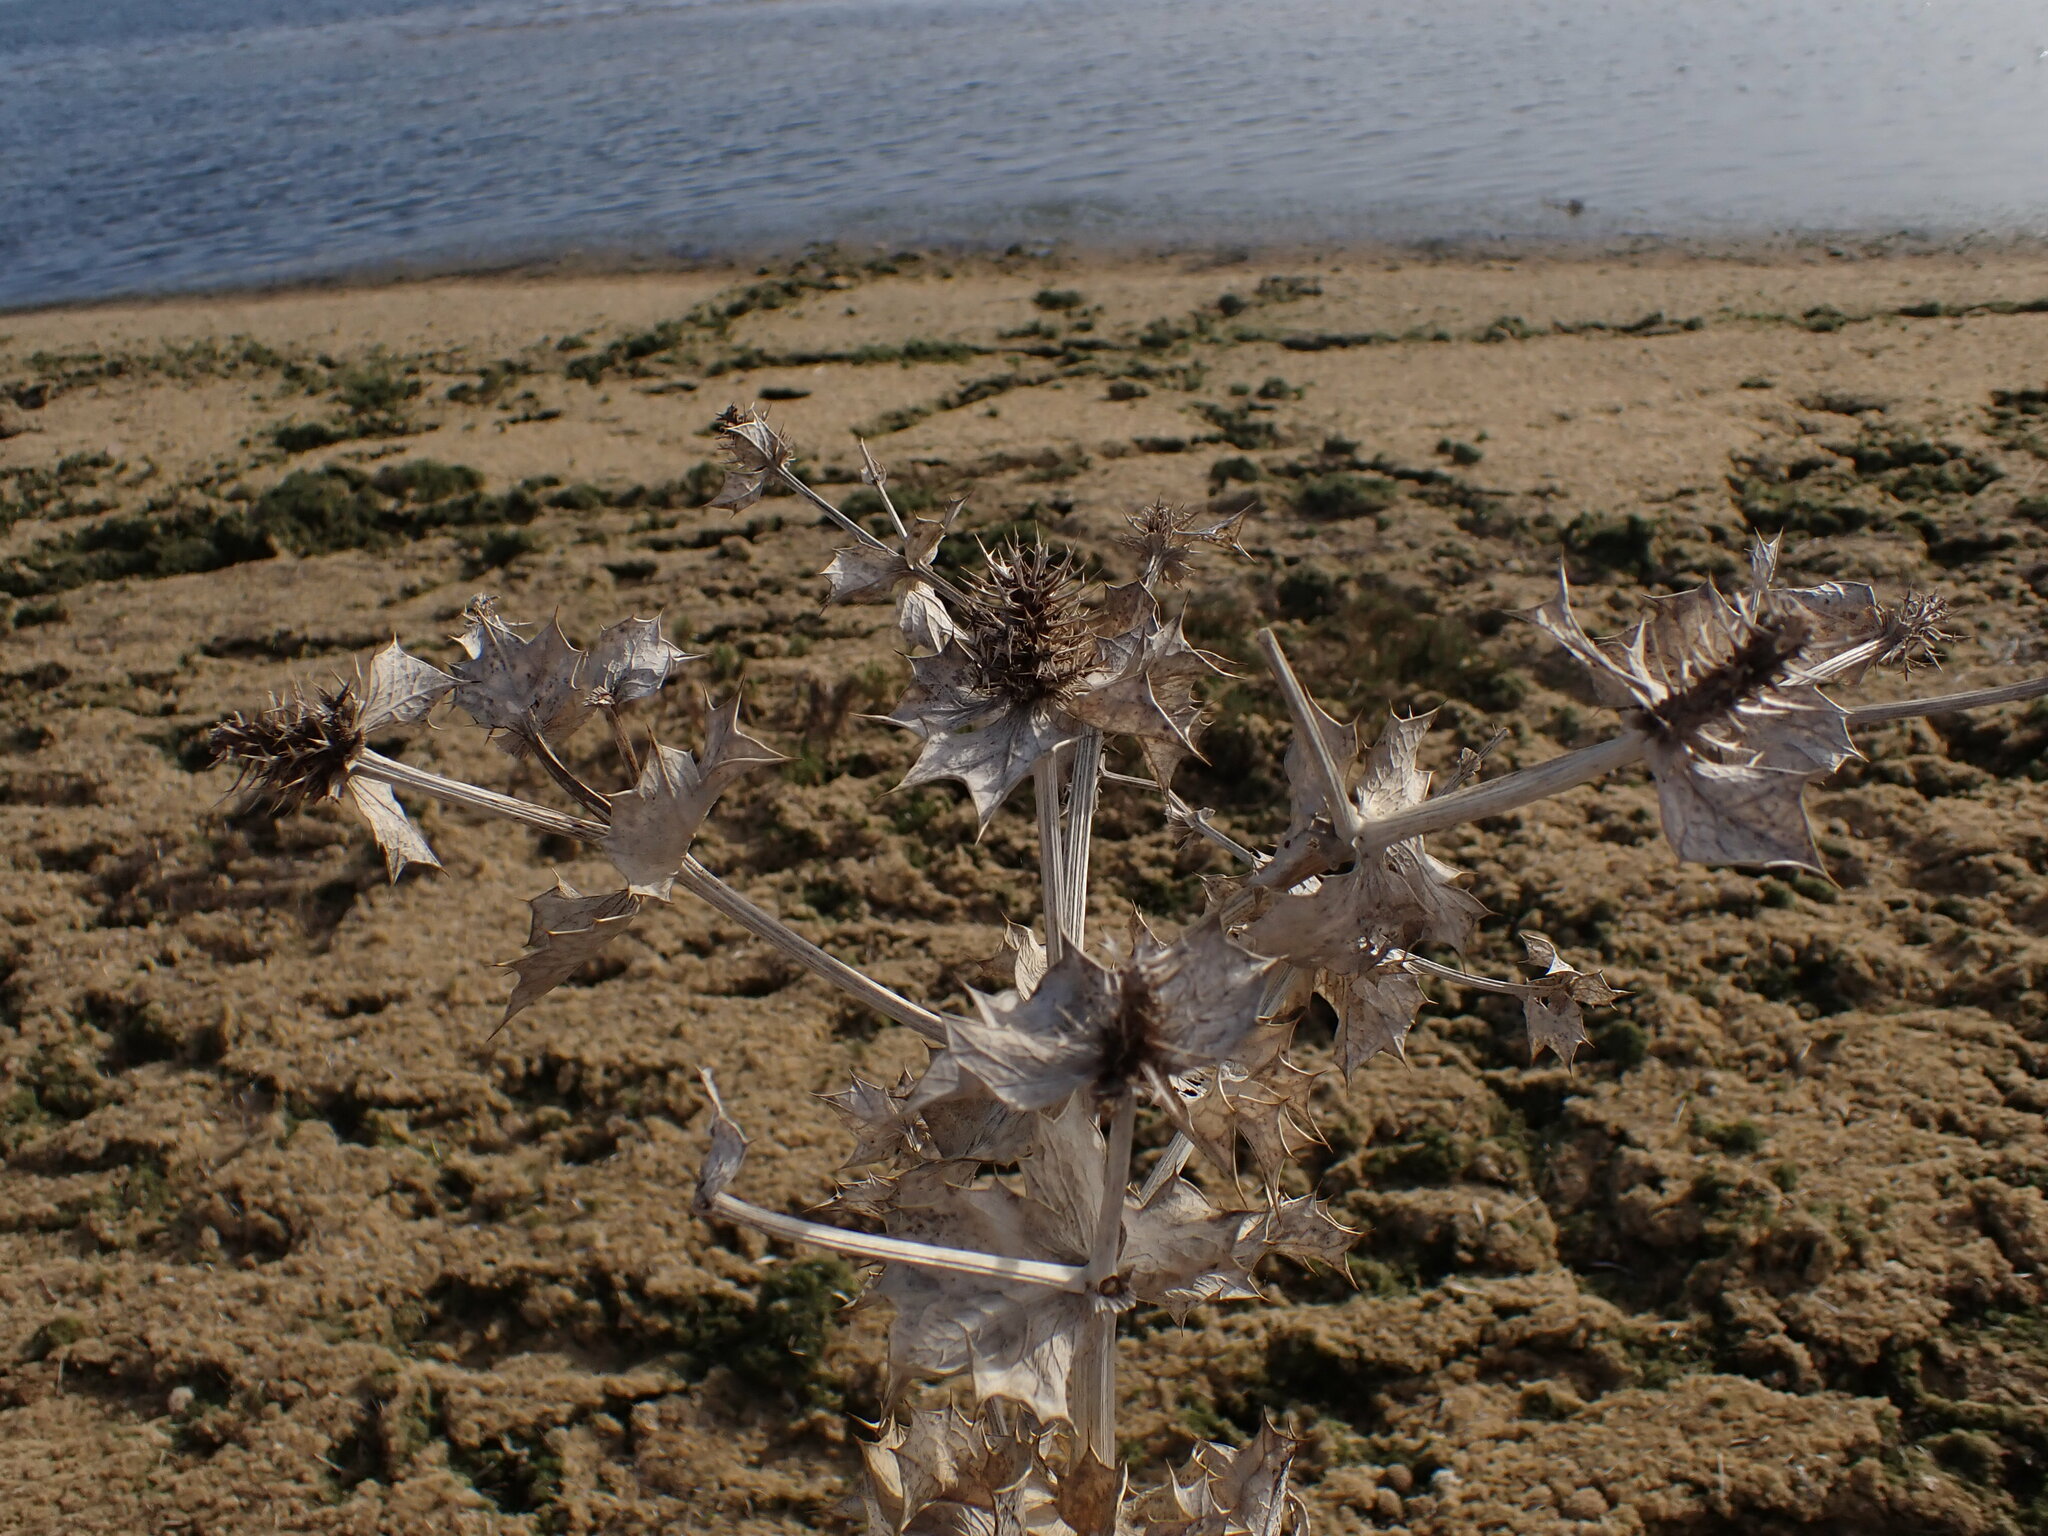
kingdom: Plantae
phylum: Tracheophyta
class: Magnoliopsida
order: Apiales
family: Apiaceae
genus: Eryngium
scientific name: Eryngium maritimum
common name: Sea-holly
